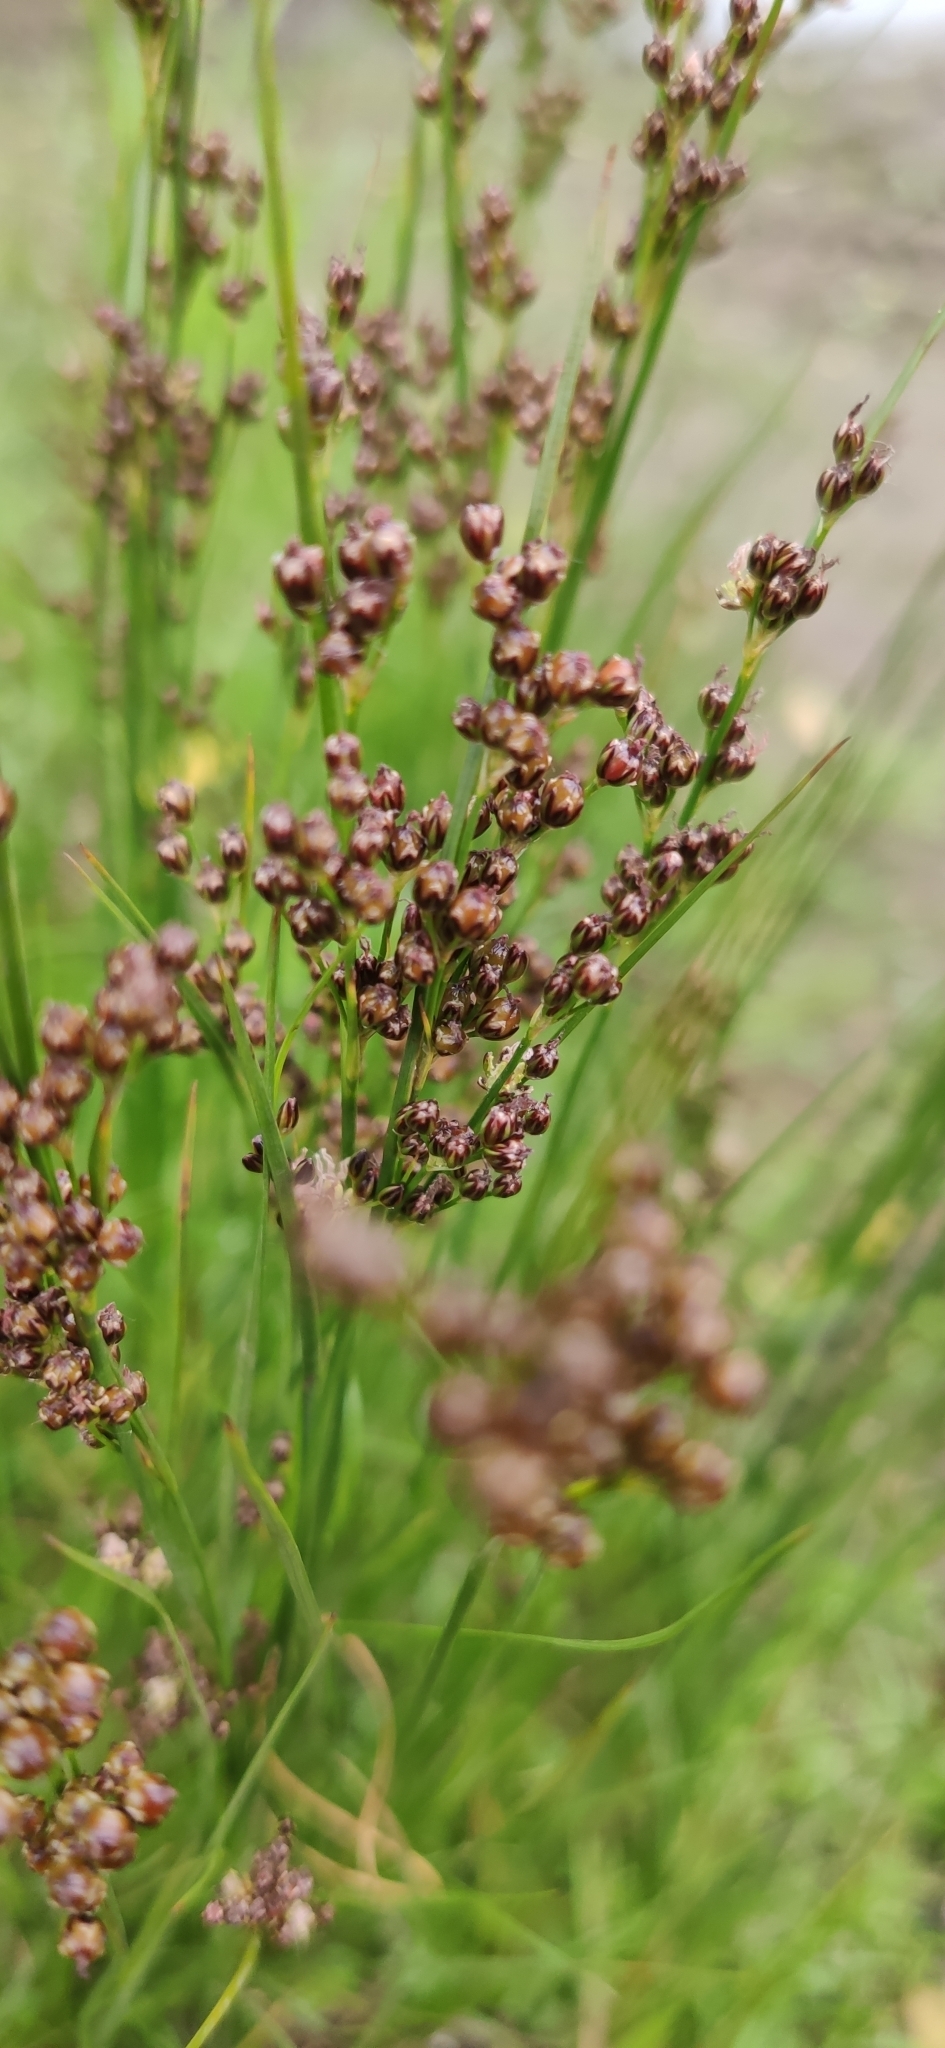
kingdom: Plantae
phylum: Tracheophyta
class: Liliopsida
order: Poales
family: Juncaceae
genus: Juncus
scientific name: Juncus compressus
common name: Round-fruited rush
